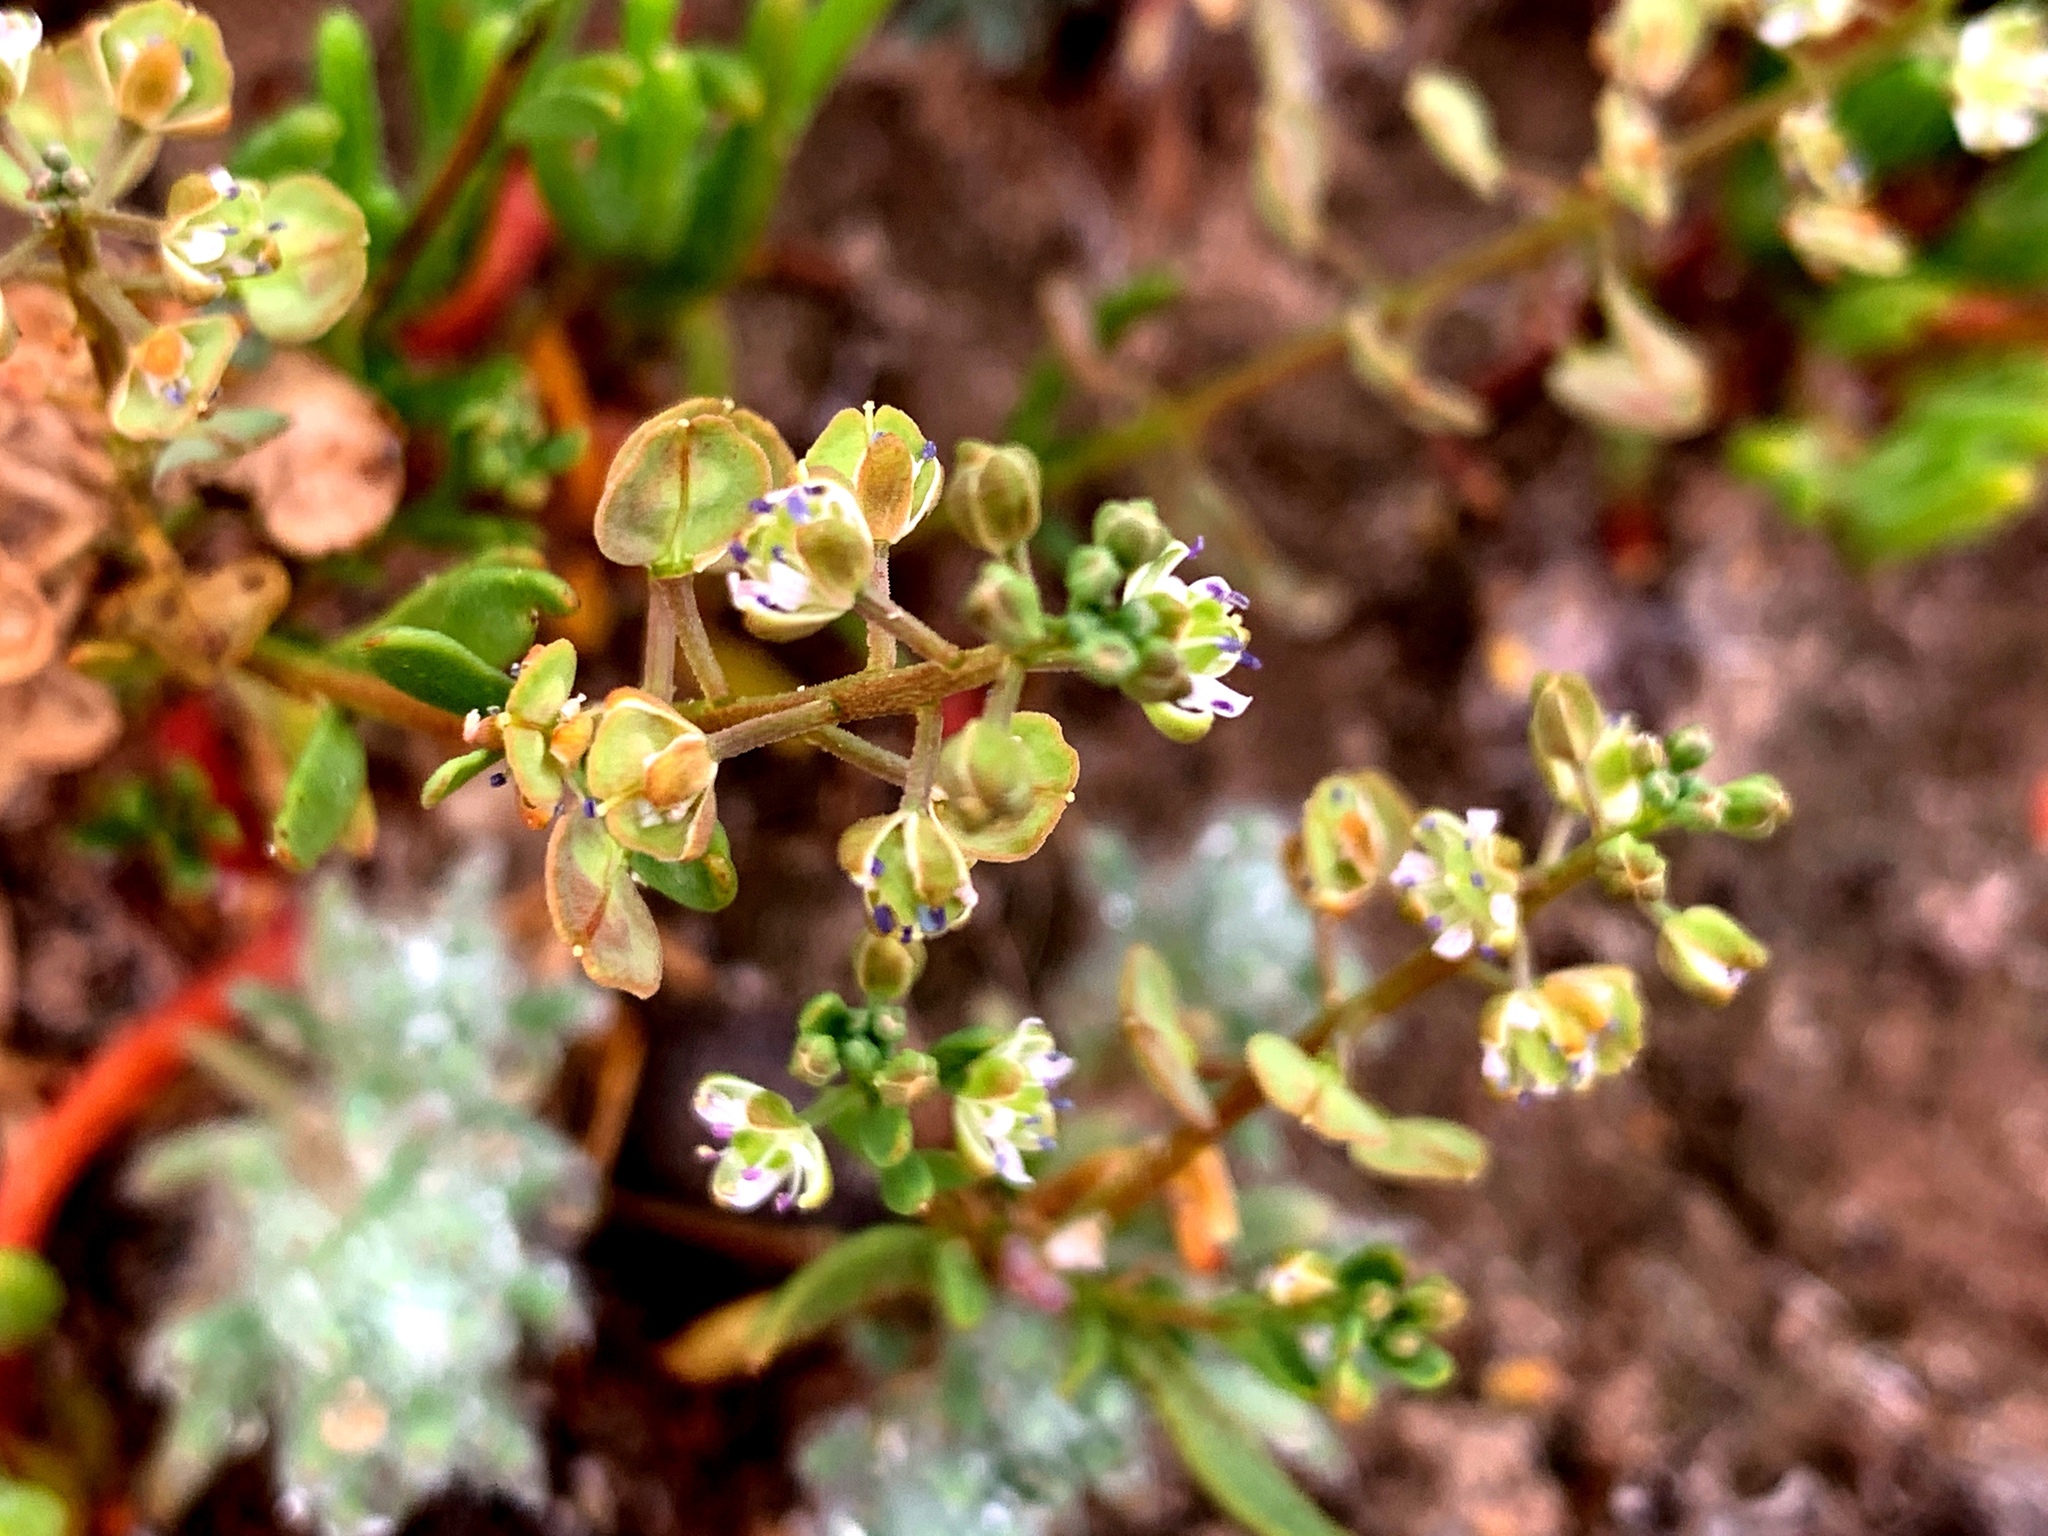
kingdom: Plantae
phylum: Tracheophyta
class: Magnoliopsida
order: Brassicales
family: Brassicaceae
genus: Lepidium
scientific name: Lepidium phlebopetalum
